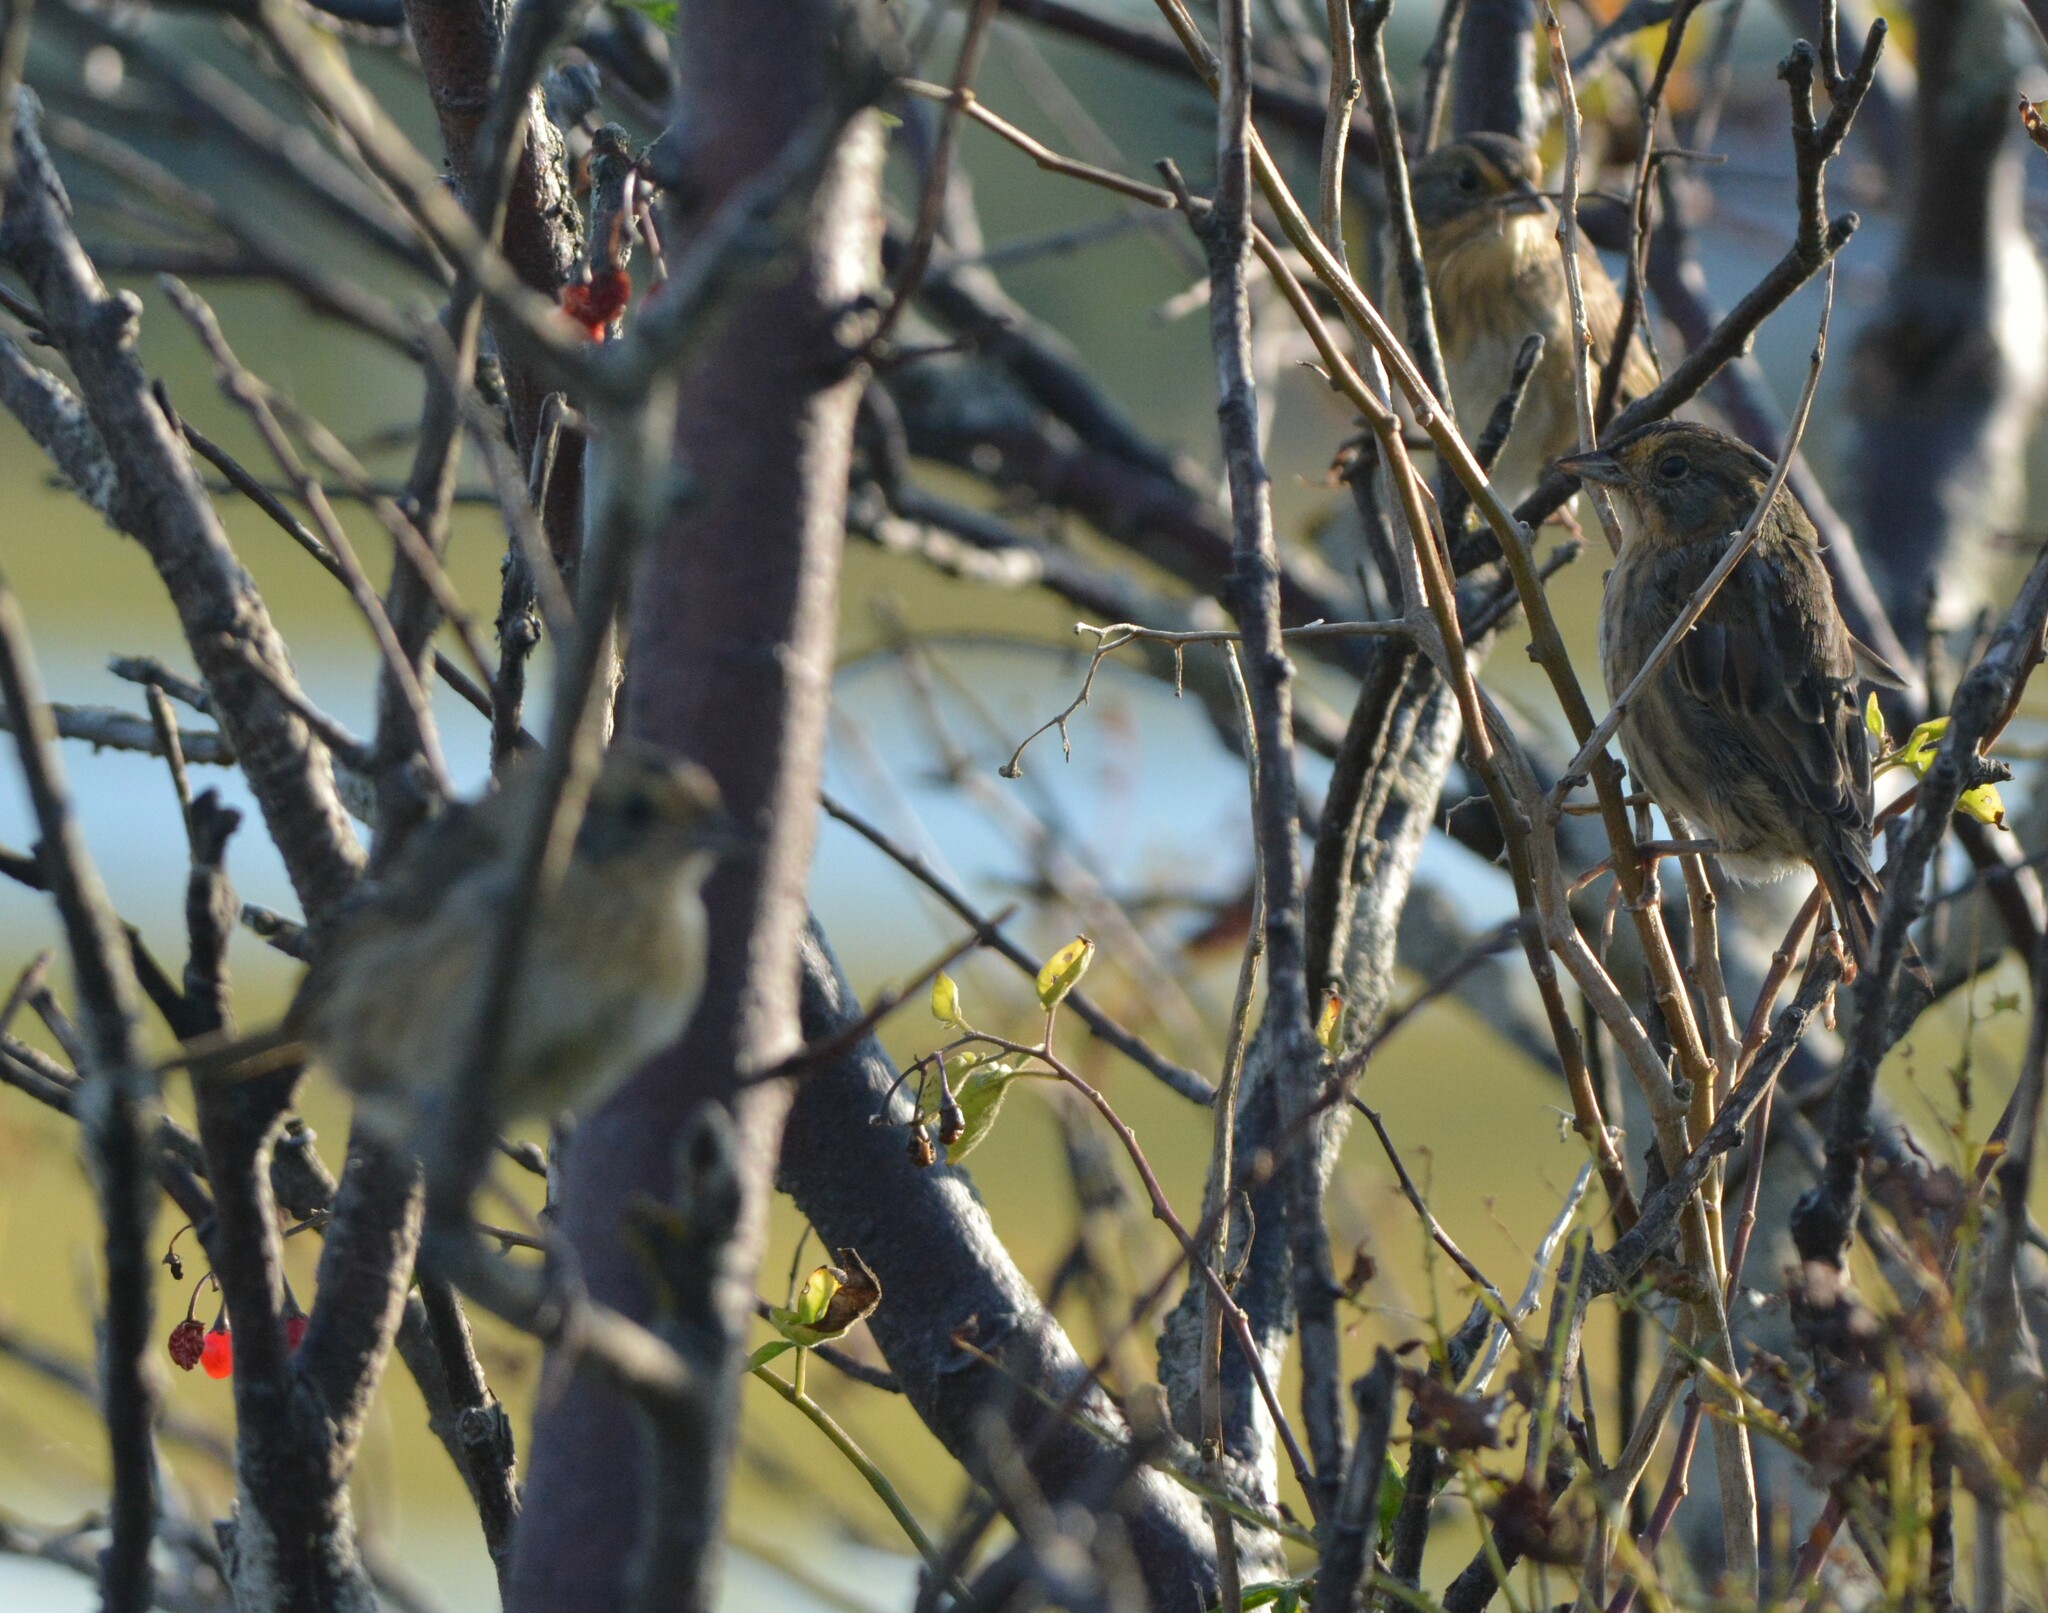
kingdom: Animalia
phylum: Chordata
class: Aves
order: Passeriformes
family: Passerellidae
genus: Ammospiza
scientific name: Ammospiza nelsoni
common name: Nelson's sparrow
